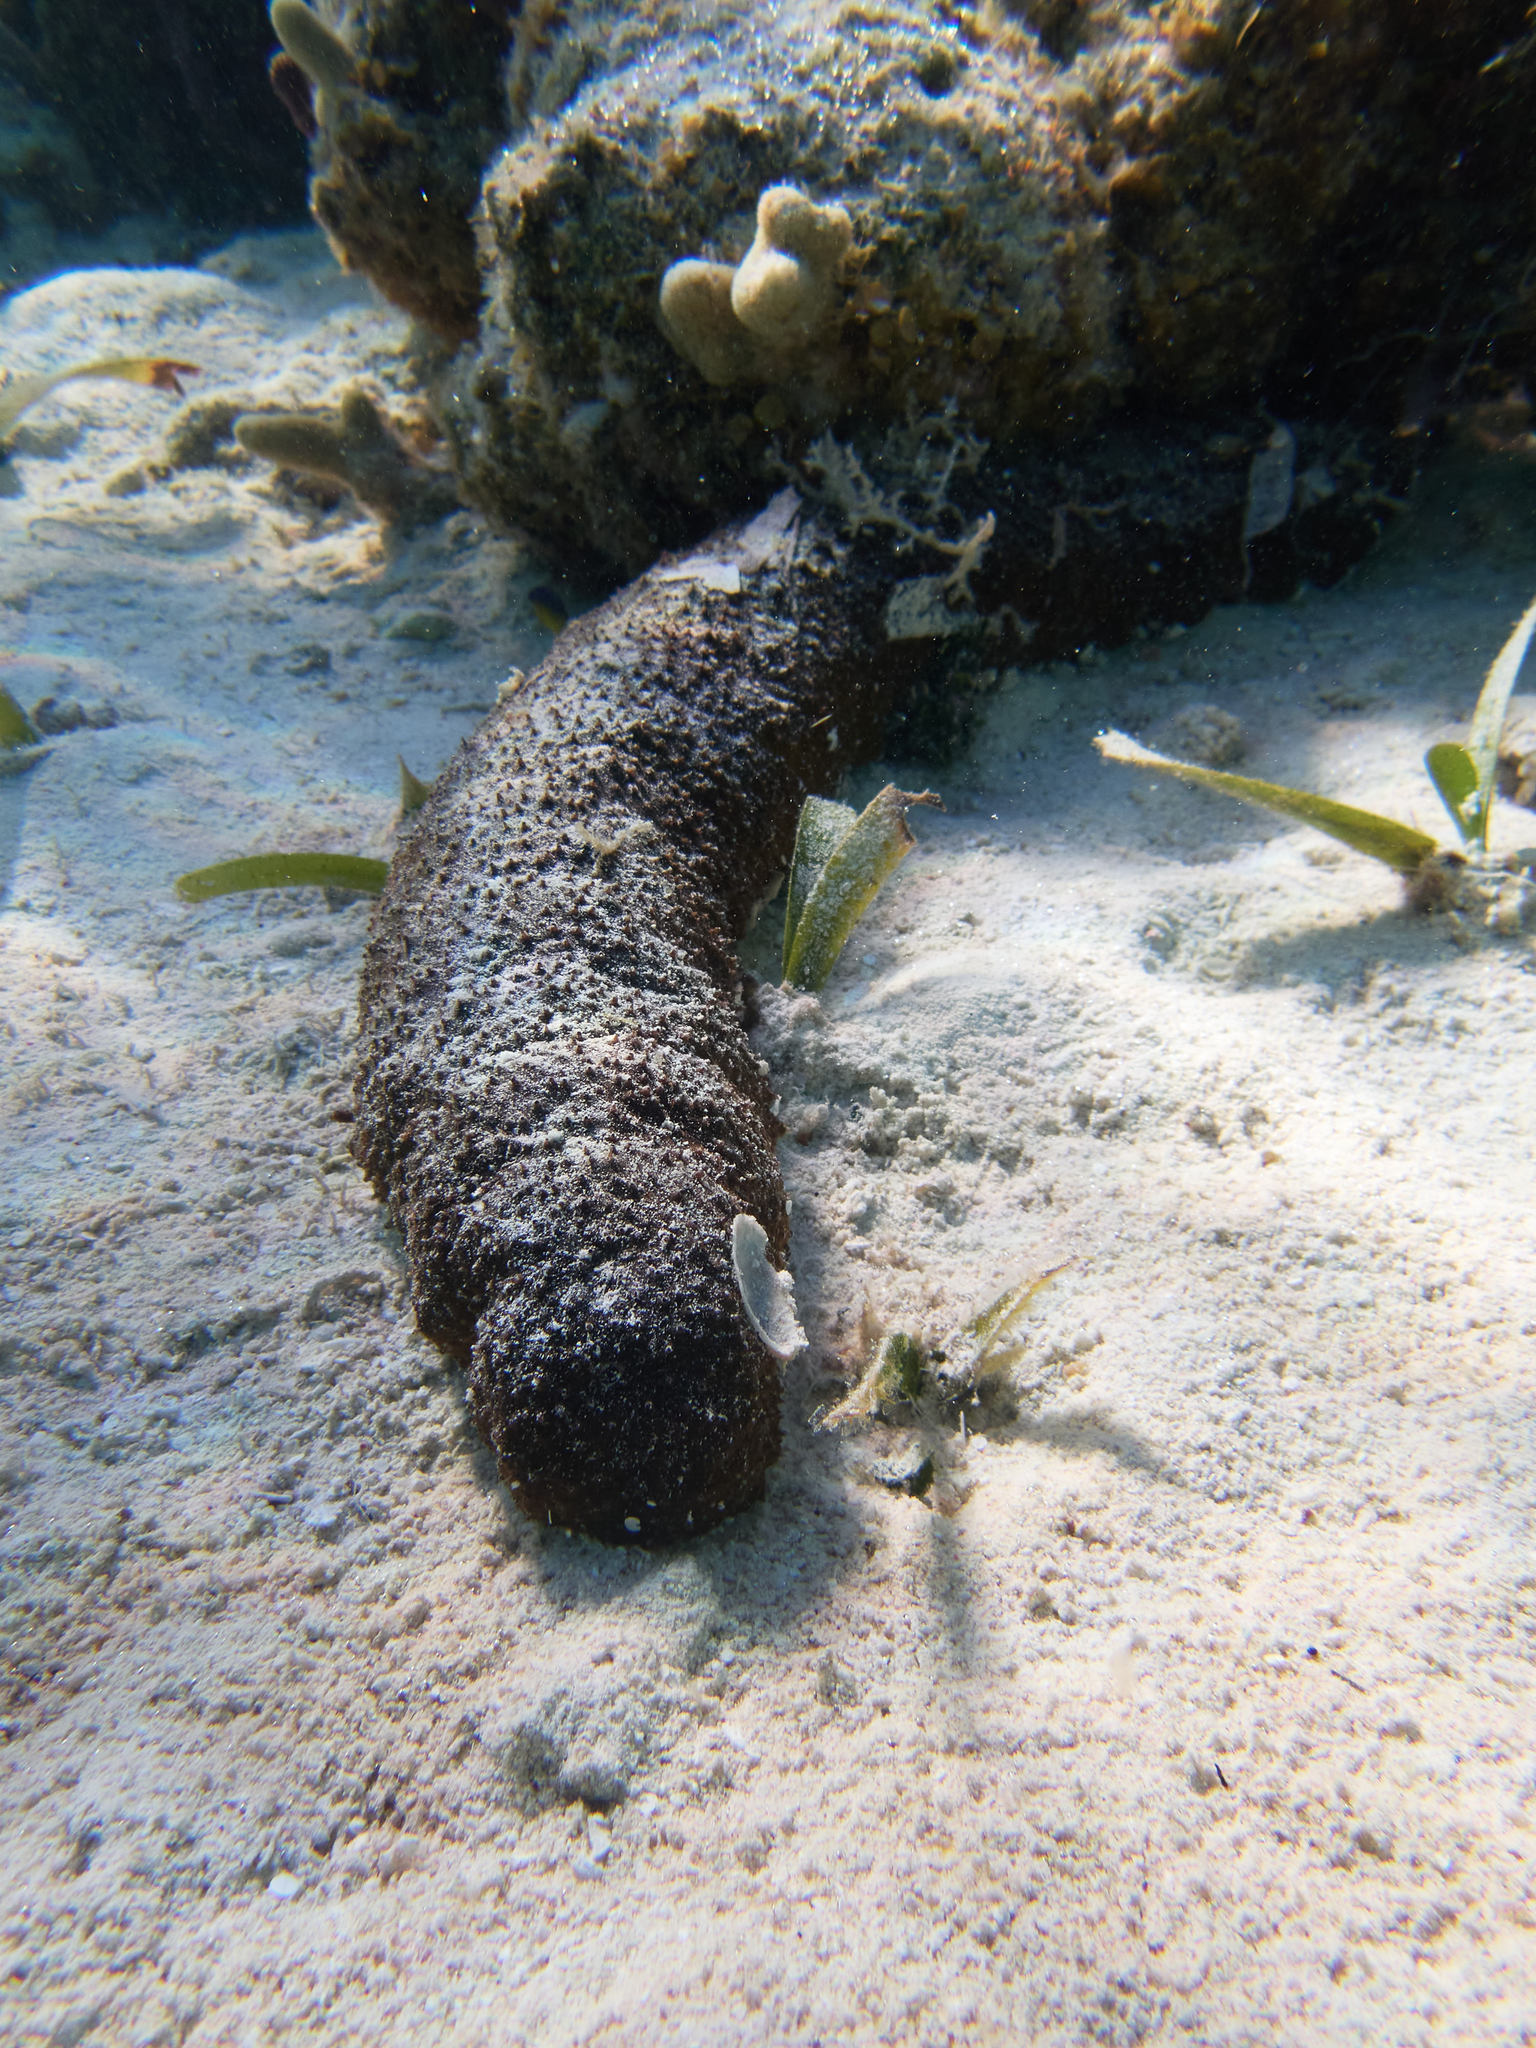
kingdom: Animalia
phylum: Echinodermata
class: Holothuroidea
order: Holothuriida
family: Holothuriidae
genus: Holothuria
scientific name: Holothuria mexicana
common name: Donkey dung sea cucumber
